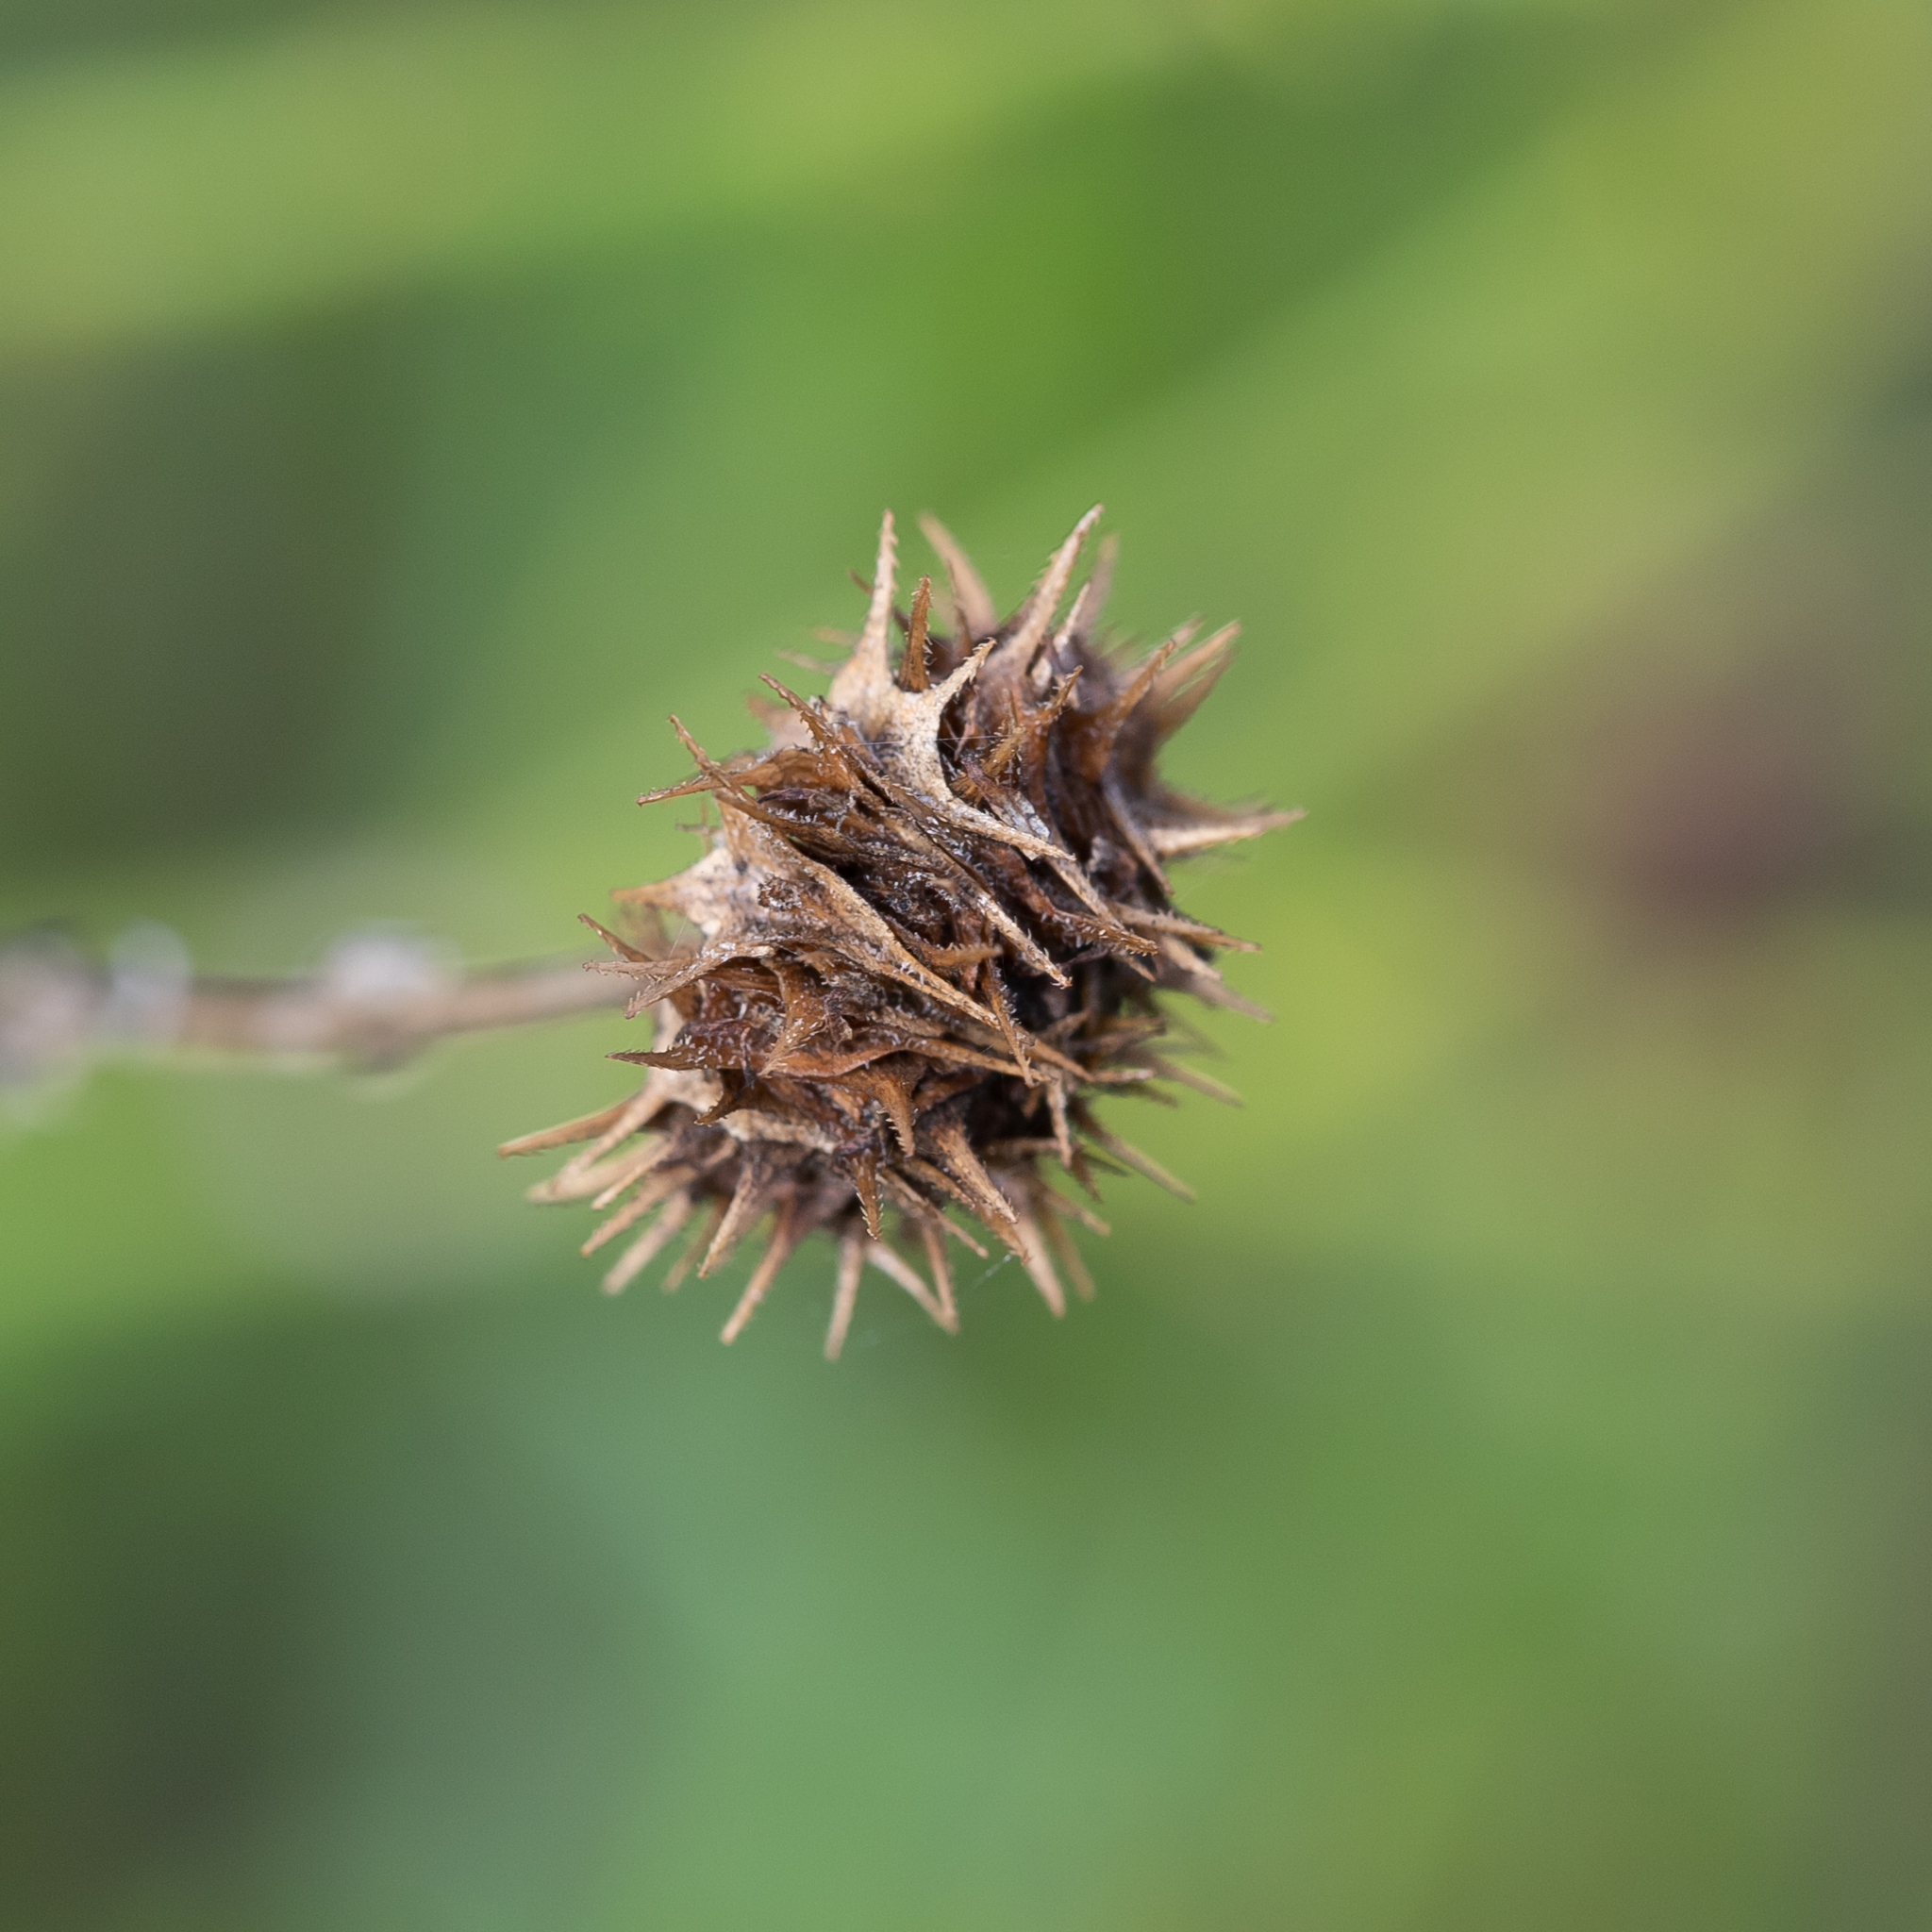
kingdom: Plantae
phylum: Tracheophyta
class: Magnoliopsida
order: Asterales
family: Asteraceae
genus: Calotis
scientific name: Calotis erinacea
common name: Tangled bur daisy
